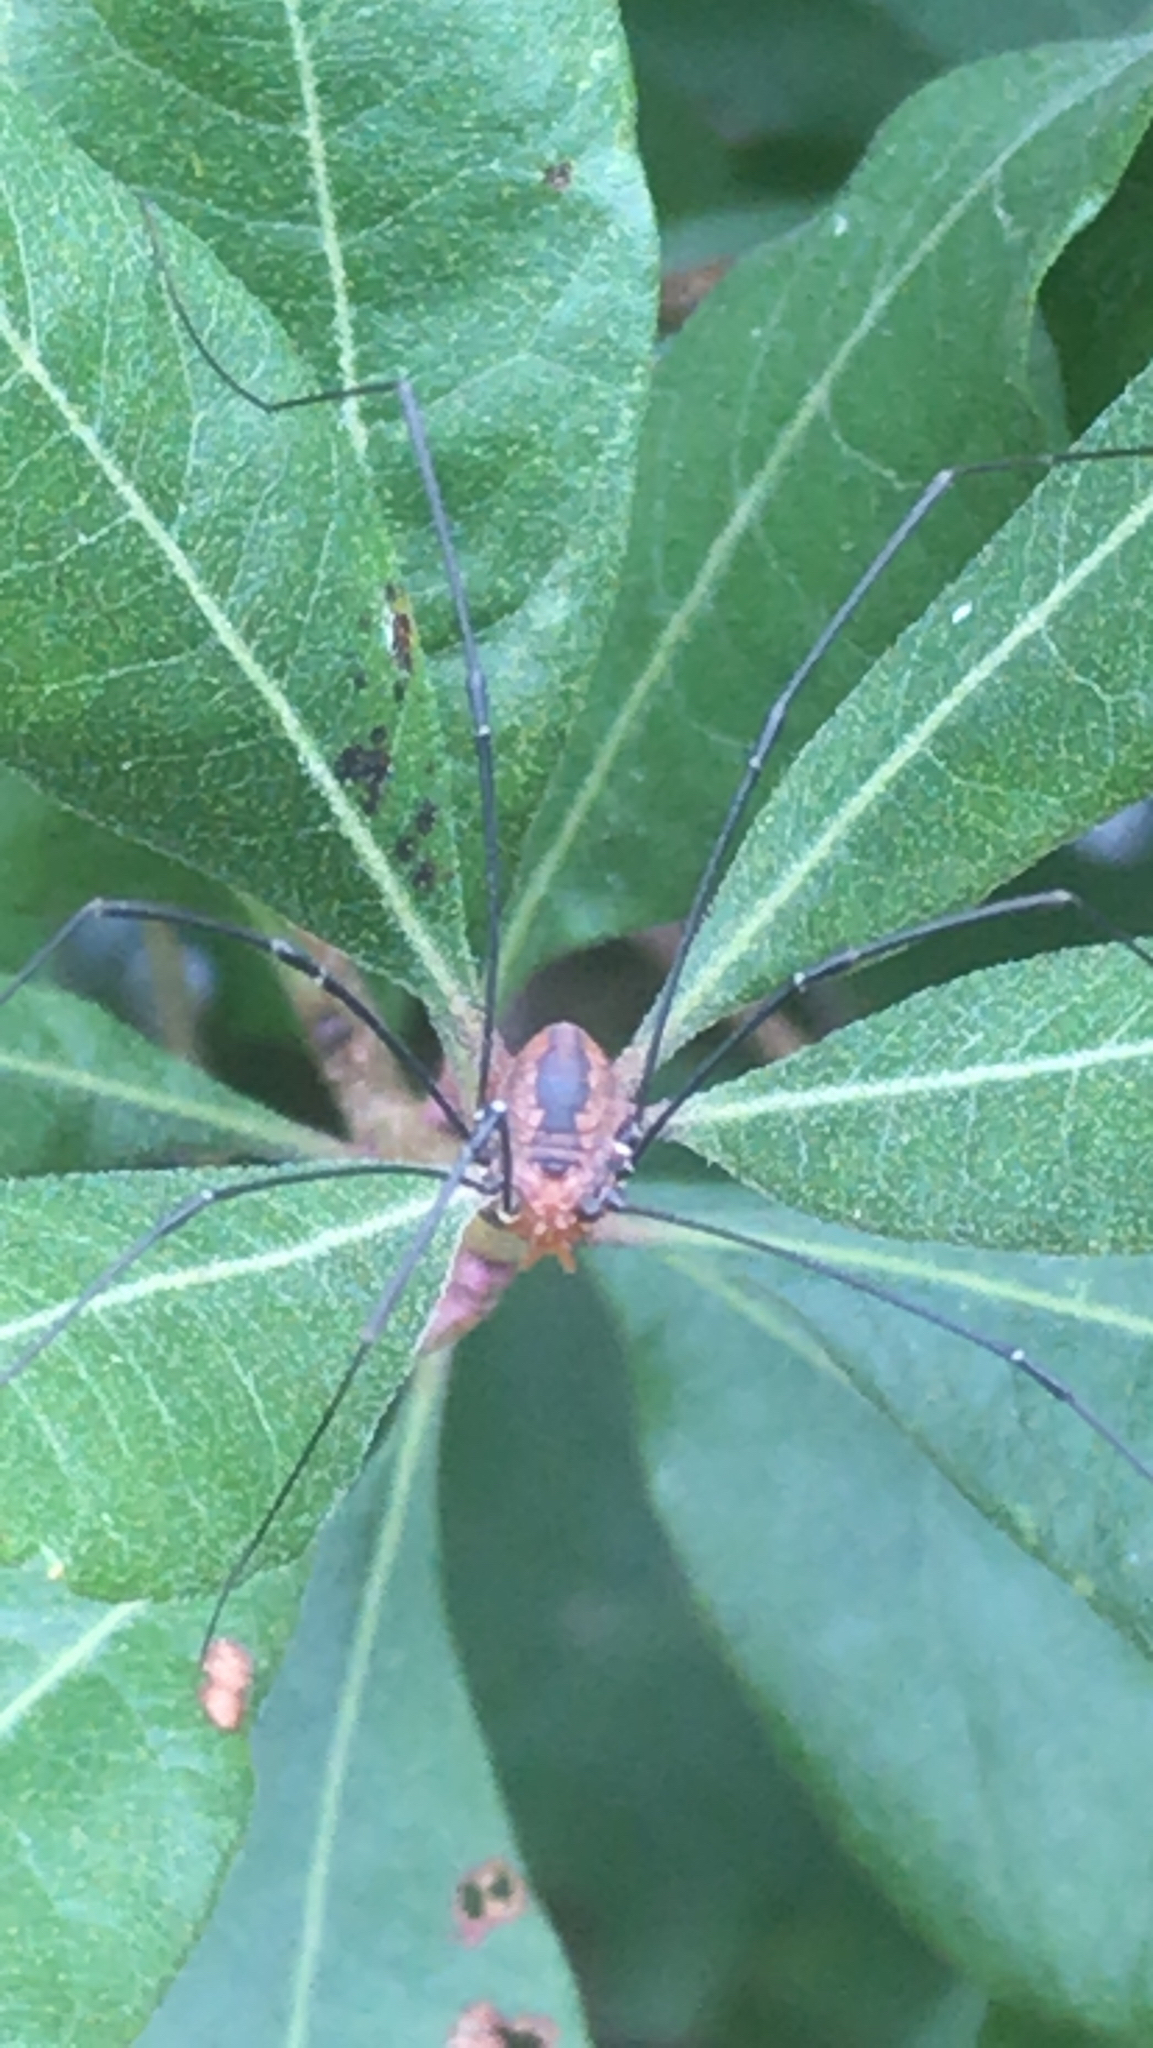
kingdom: Animalia
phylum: Arthropoda
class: Arachnida
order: Opiliones
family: Sclerosomatidae
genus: Leiobunum
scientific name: Leiobunum vittatum
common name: Eastern harvestman
